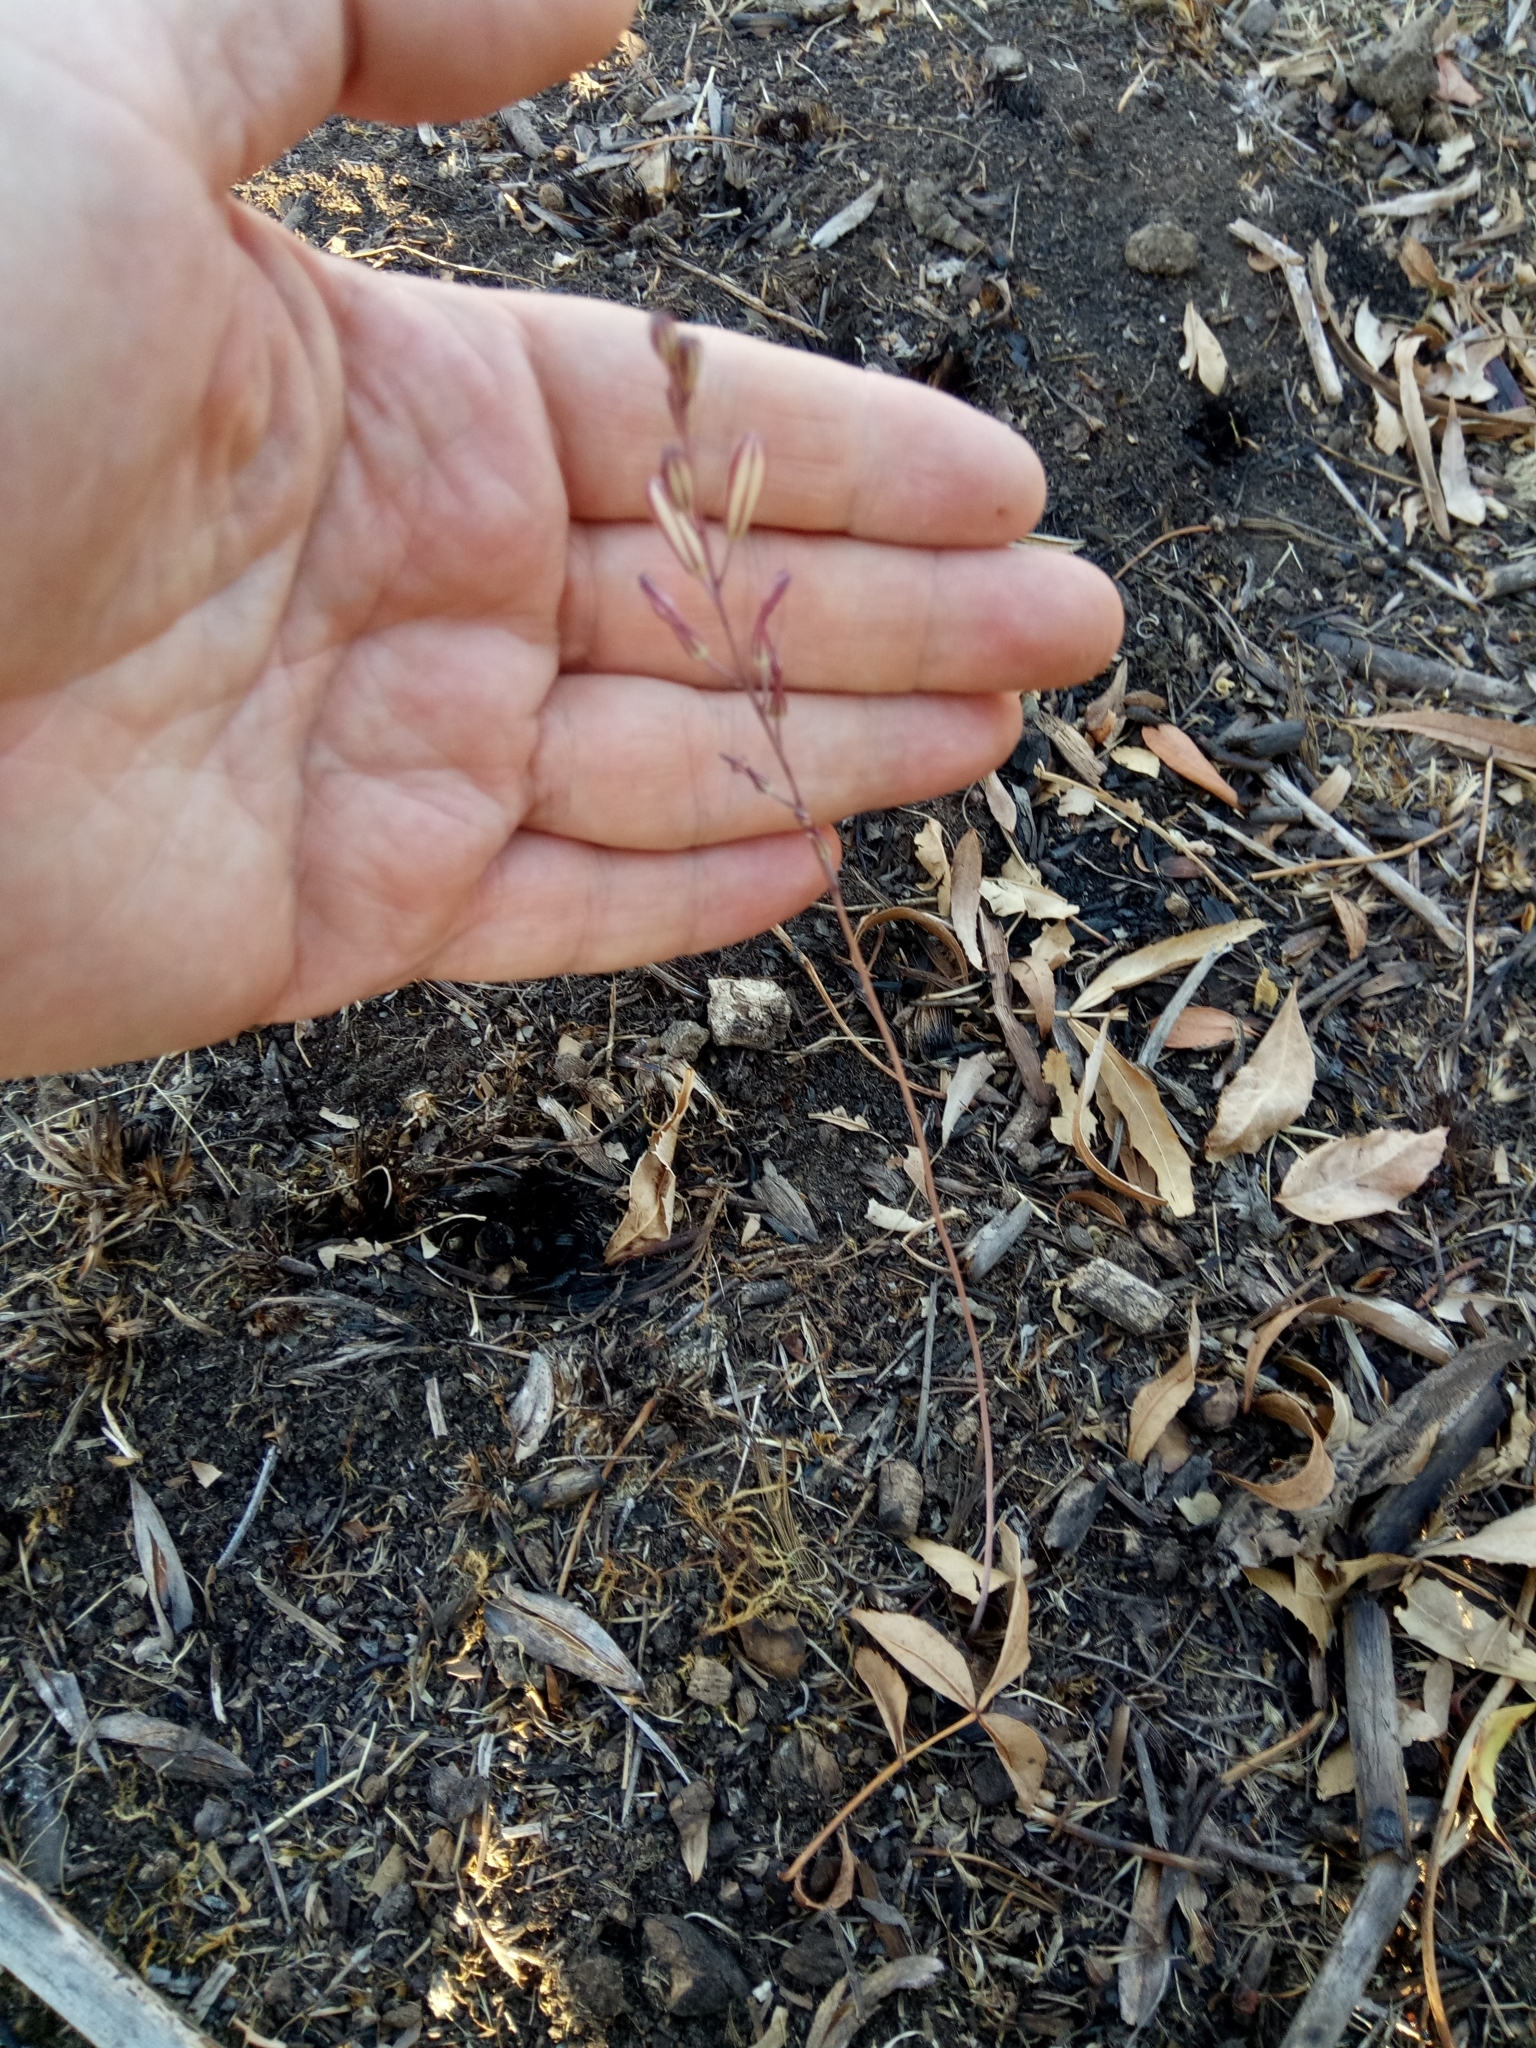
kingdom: Plantae
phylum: Tracheophyta
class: Liliopsida
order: Asparagales
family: Asparagaceae
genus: Drimia
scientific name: Drimia fugax
